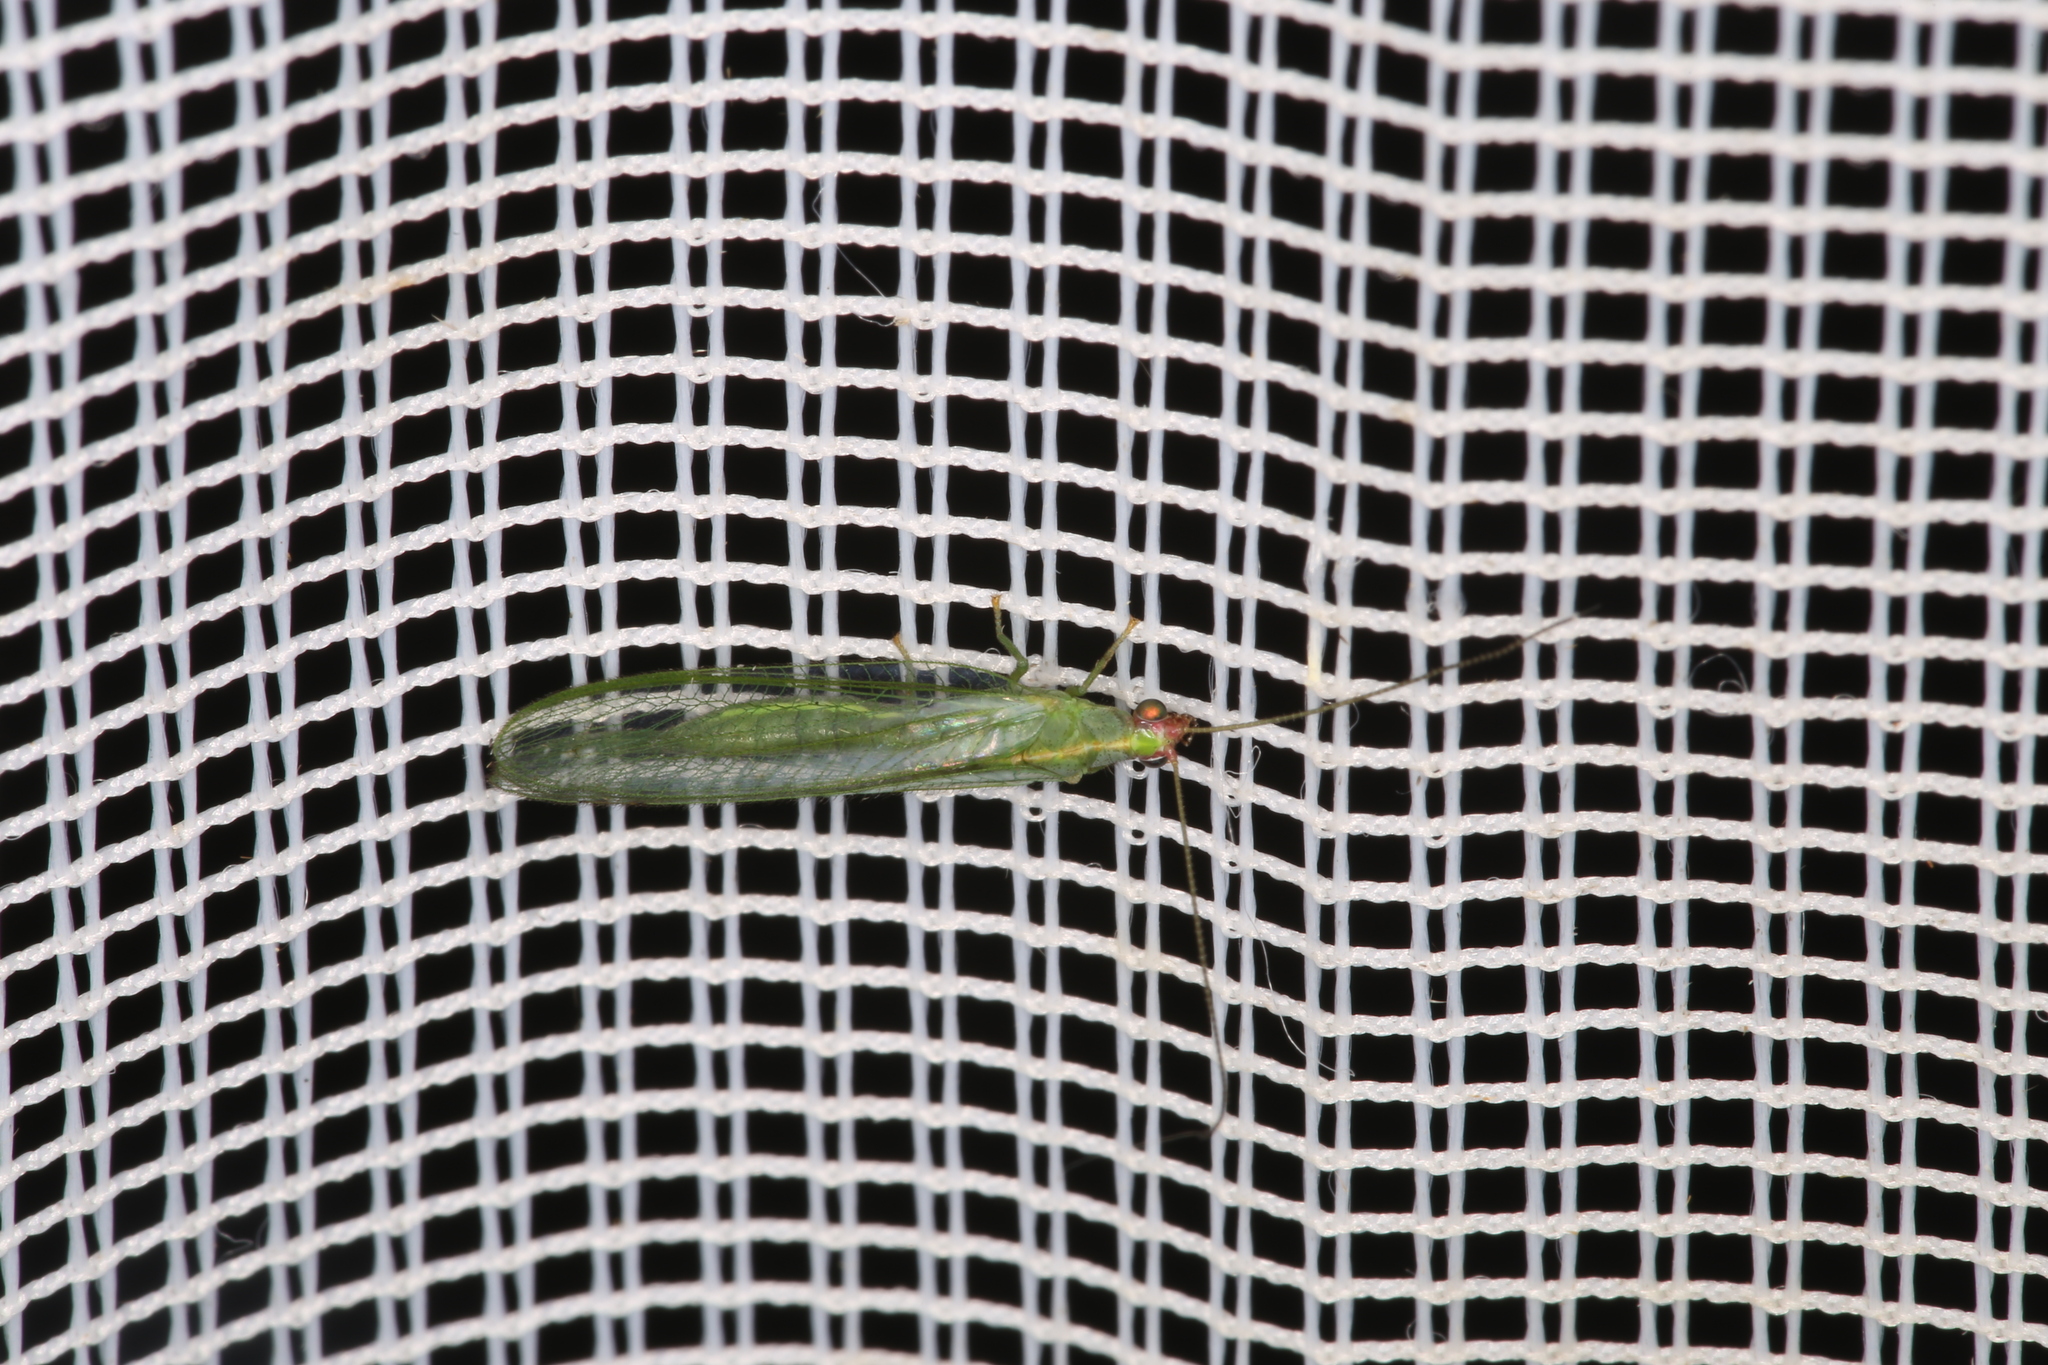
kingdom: Animalia
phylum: Arthropoda
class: Insecta
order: Neuroptera
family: Chrysopidae
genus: Peyerimhoffina
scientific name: Peyerimhoffina gracilis
